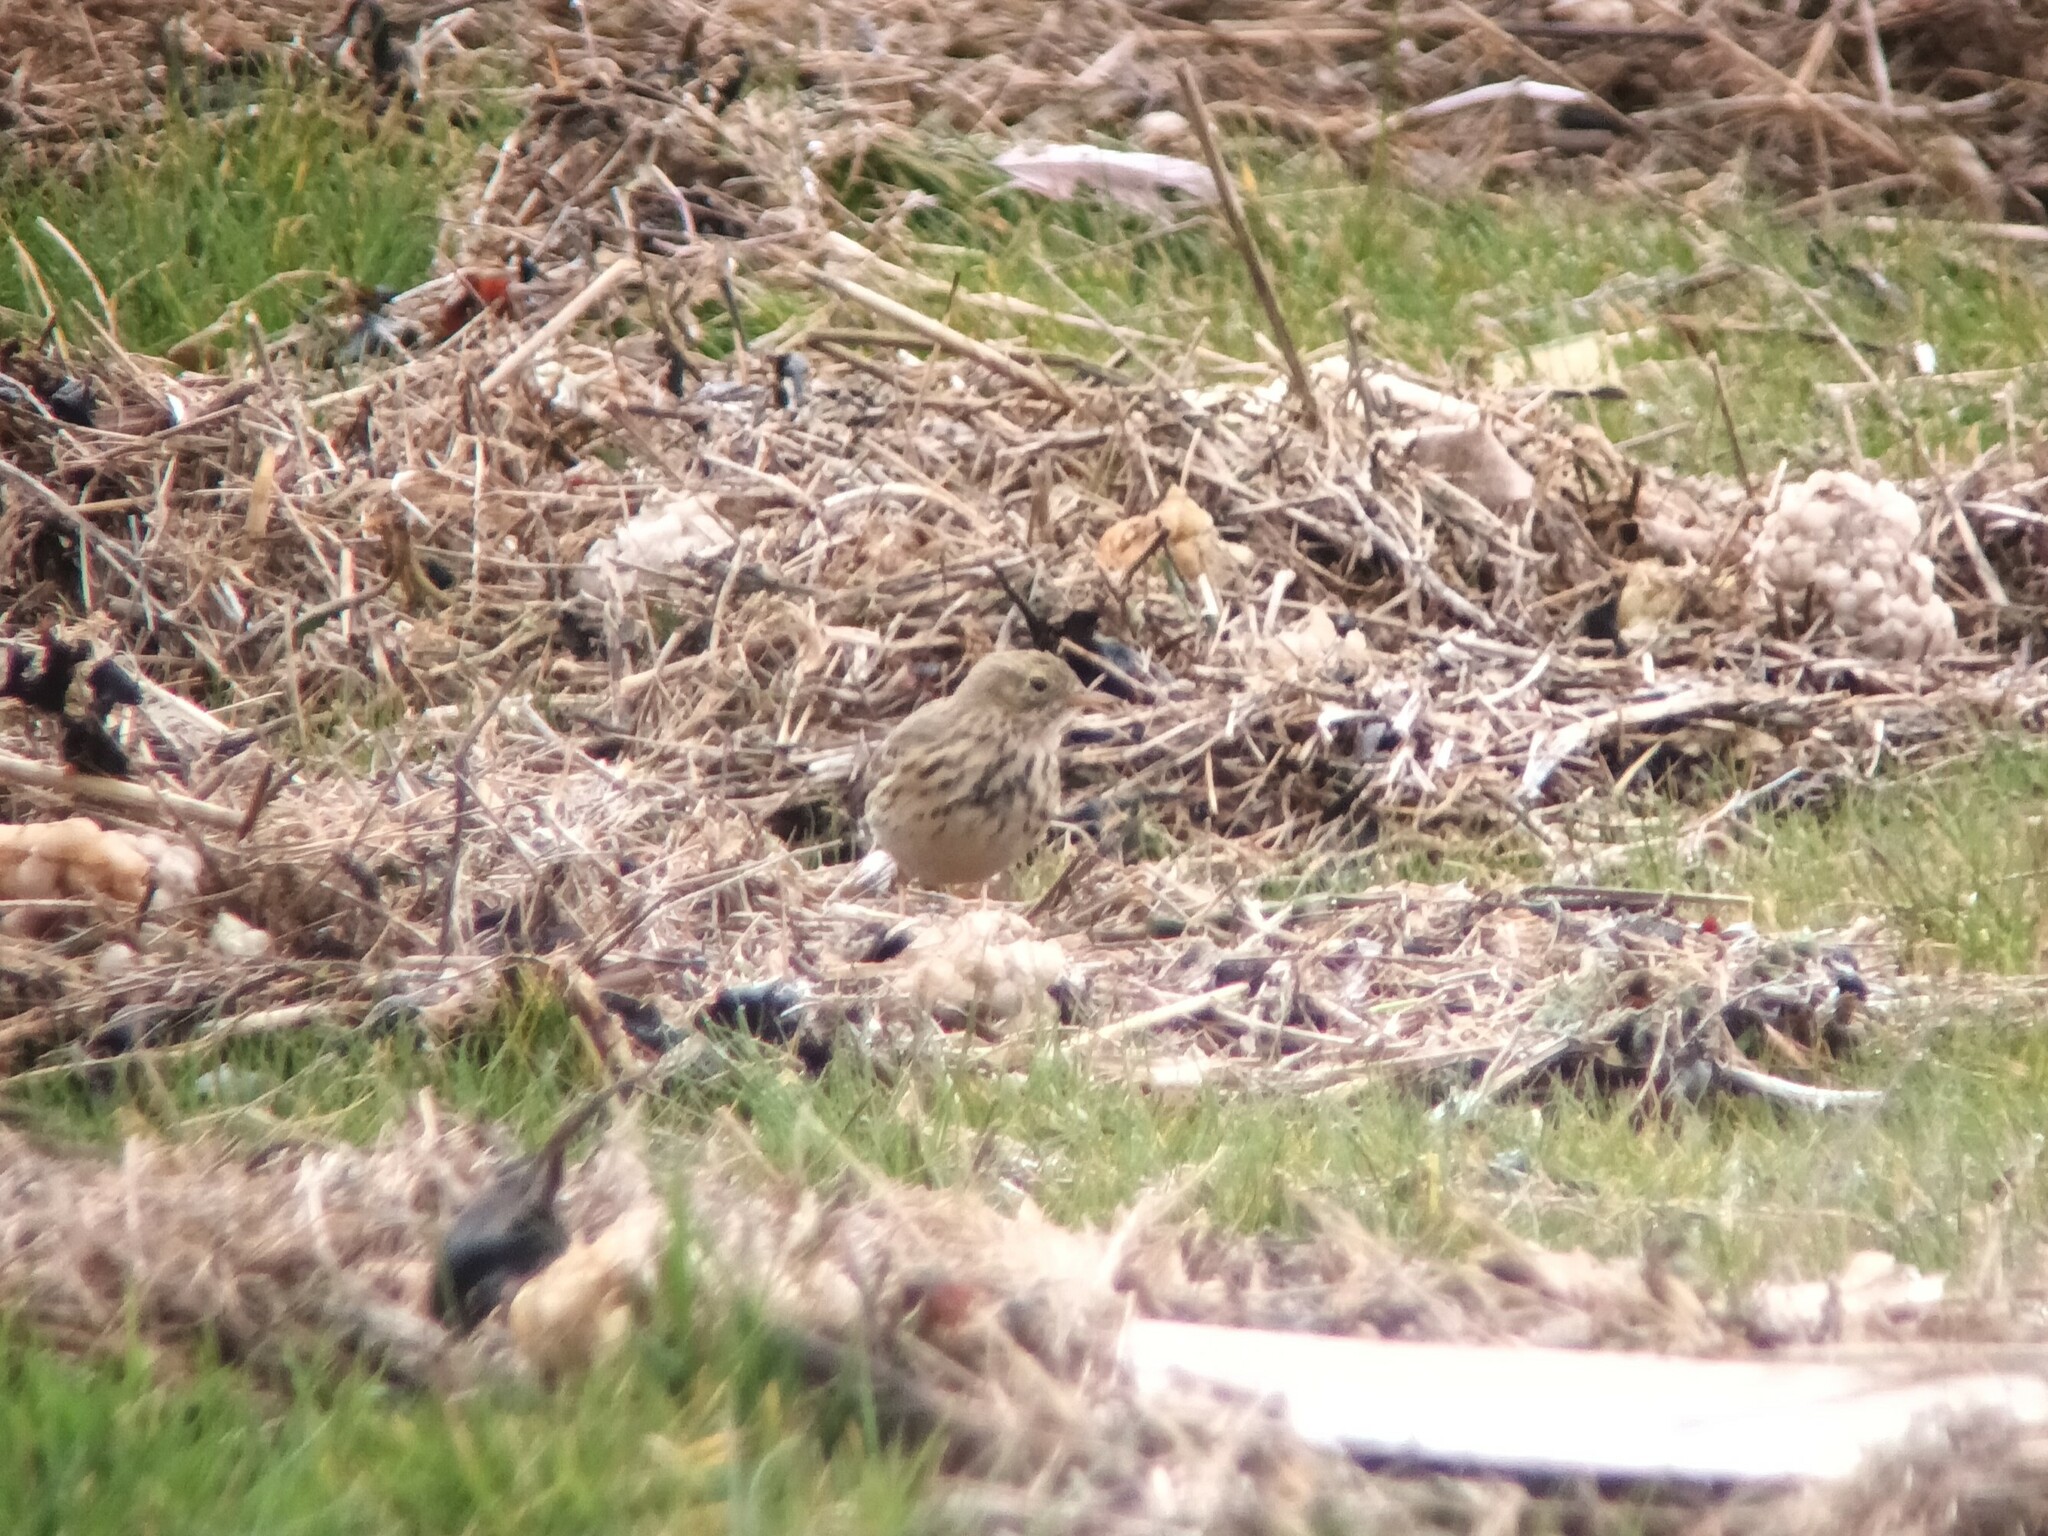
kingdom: Animalia
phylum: Chordata
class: Aves
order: Passeriformes
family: Motacillidae
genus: Anthus
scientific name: Anthus pratensis
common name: Meadow pipit
